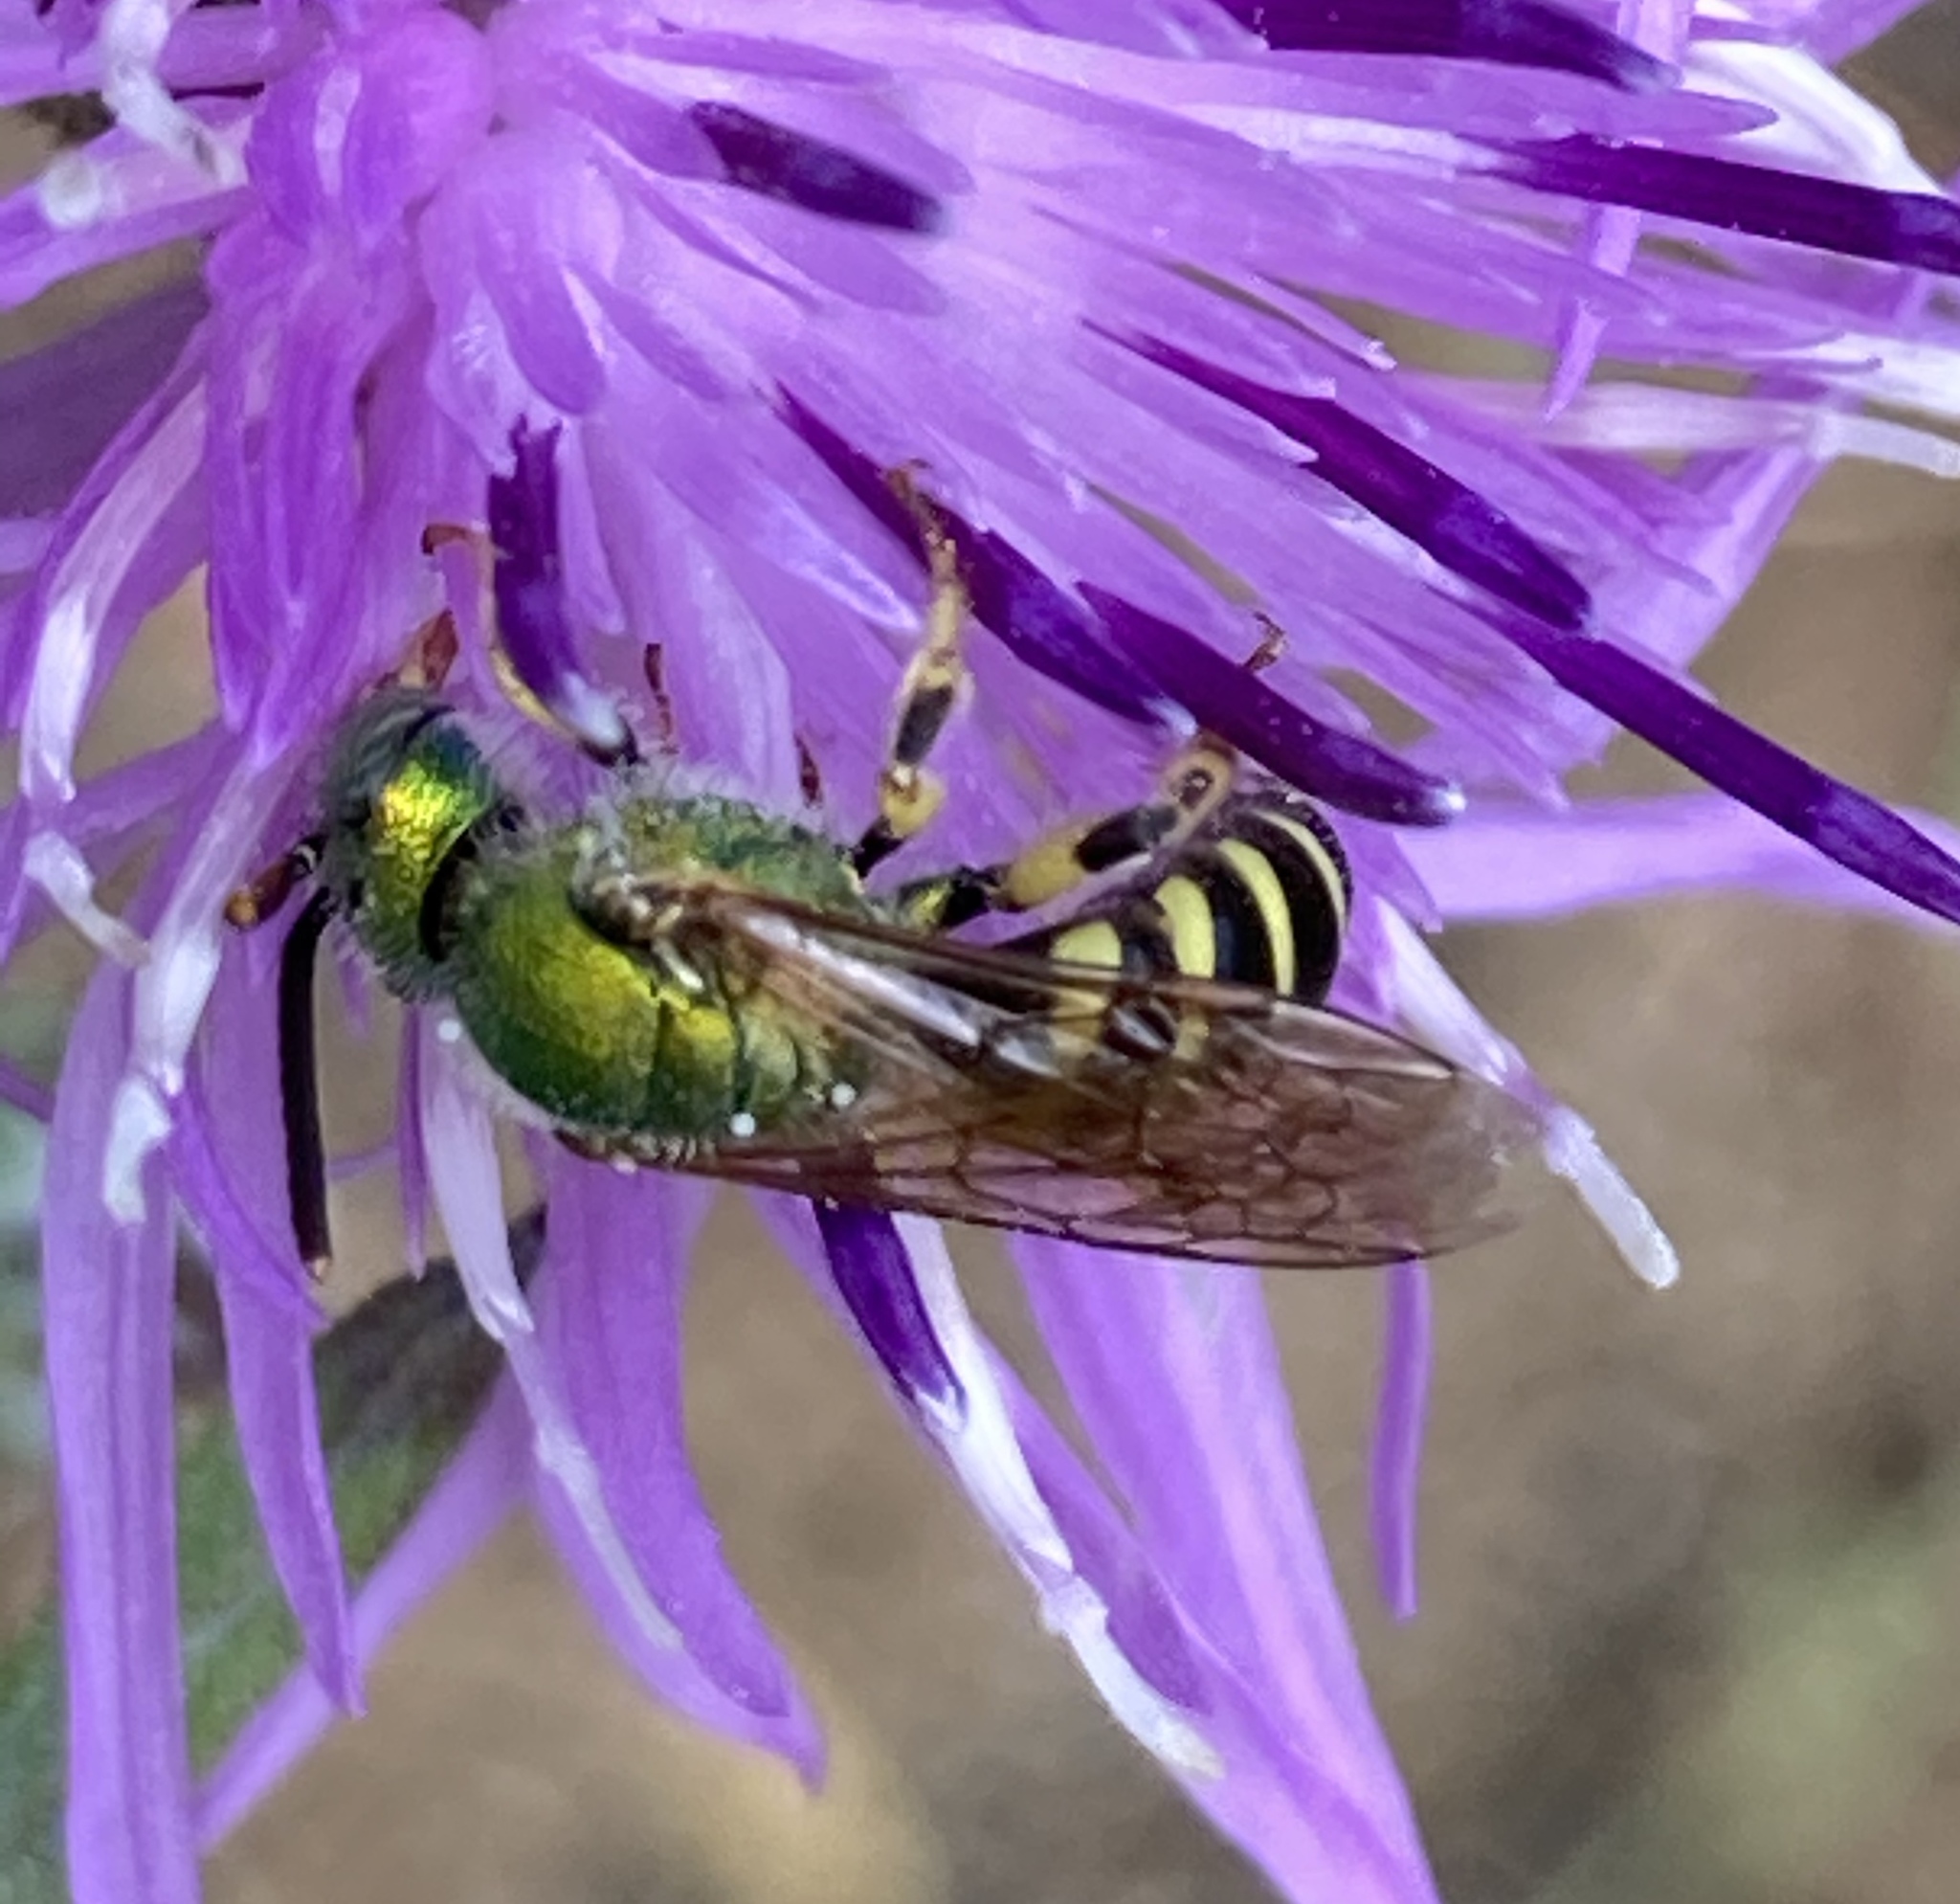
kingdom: Animalia
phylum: Arthropoda
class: Insecta
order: Hymenoptera
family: Halictidae
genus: Agapostemon
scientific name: Agapostemon virescens
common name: Bicolored striped sweat bee
